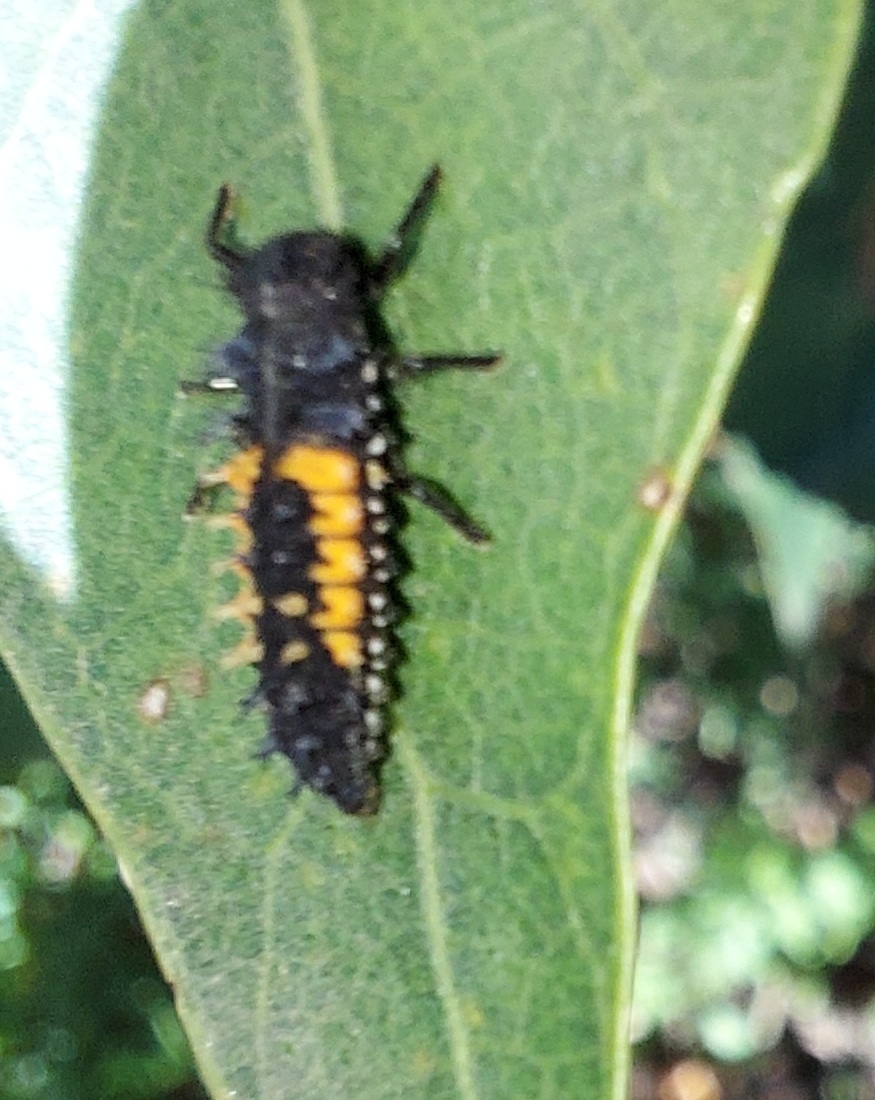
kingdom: Animalia
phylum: Arthropoda
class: Insecta
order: Coleoptera
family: Coccinellidae
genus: Harmonia
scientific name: Harmonia axyridis
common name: Harlequin ladybird
